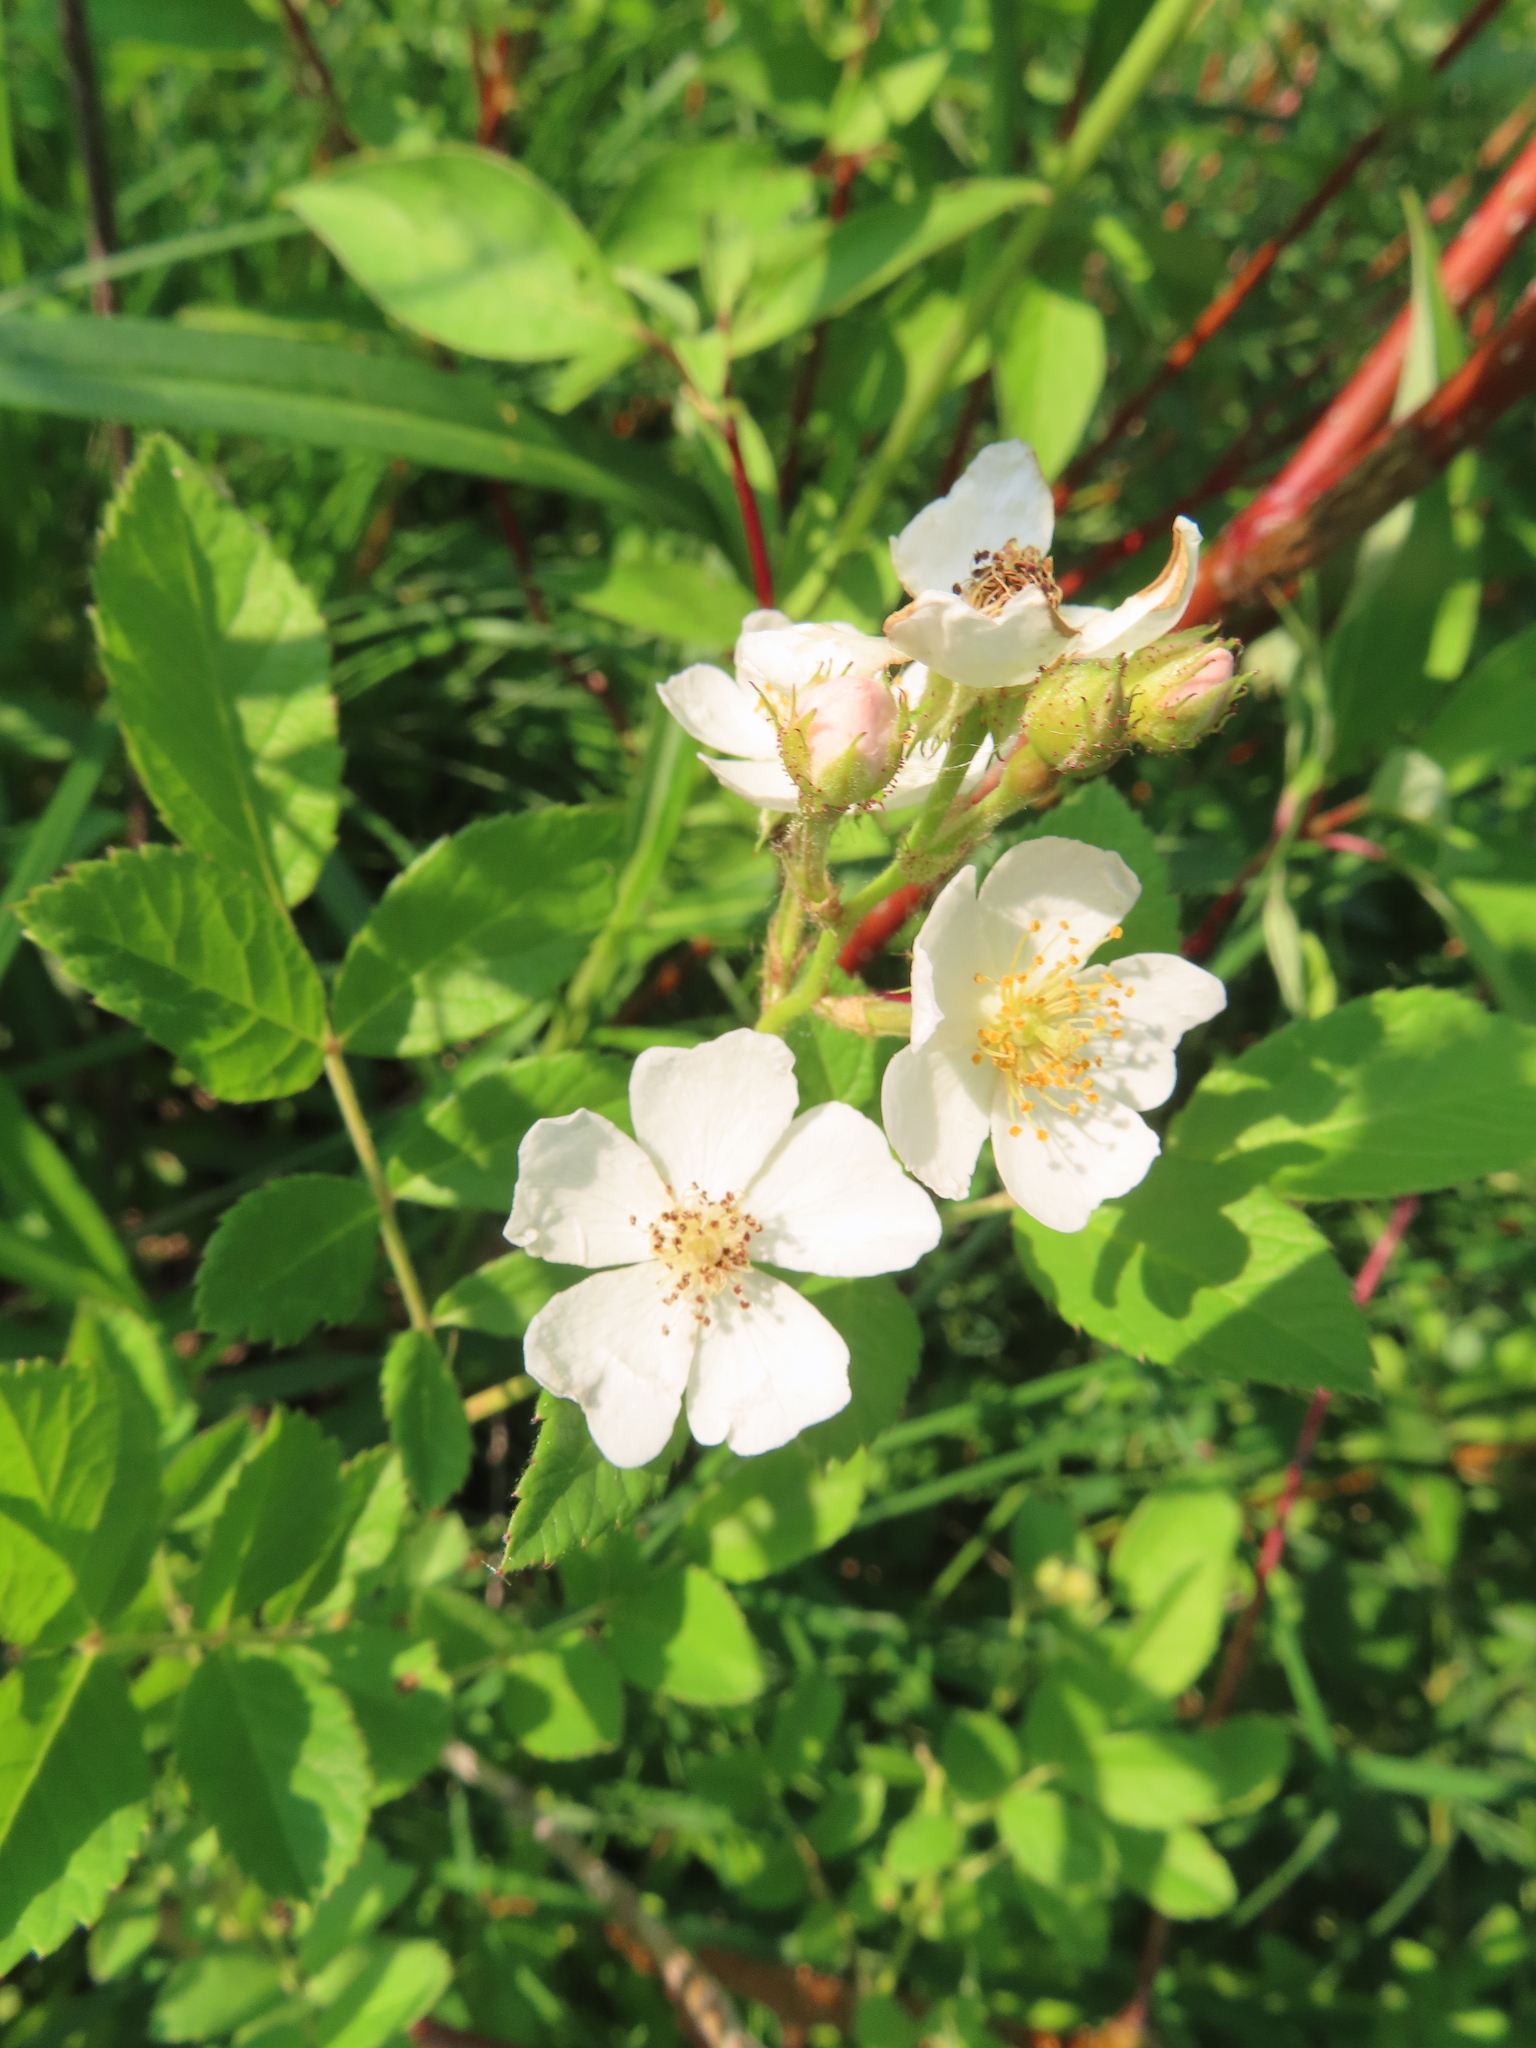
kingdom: Plantae
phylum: Tracheophyta
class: Magnoliopsida
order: Rosales
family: Rosaceae
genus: Rosa
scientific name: Rosa multiflora
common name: Multiflora rose
